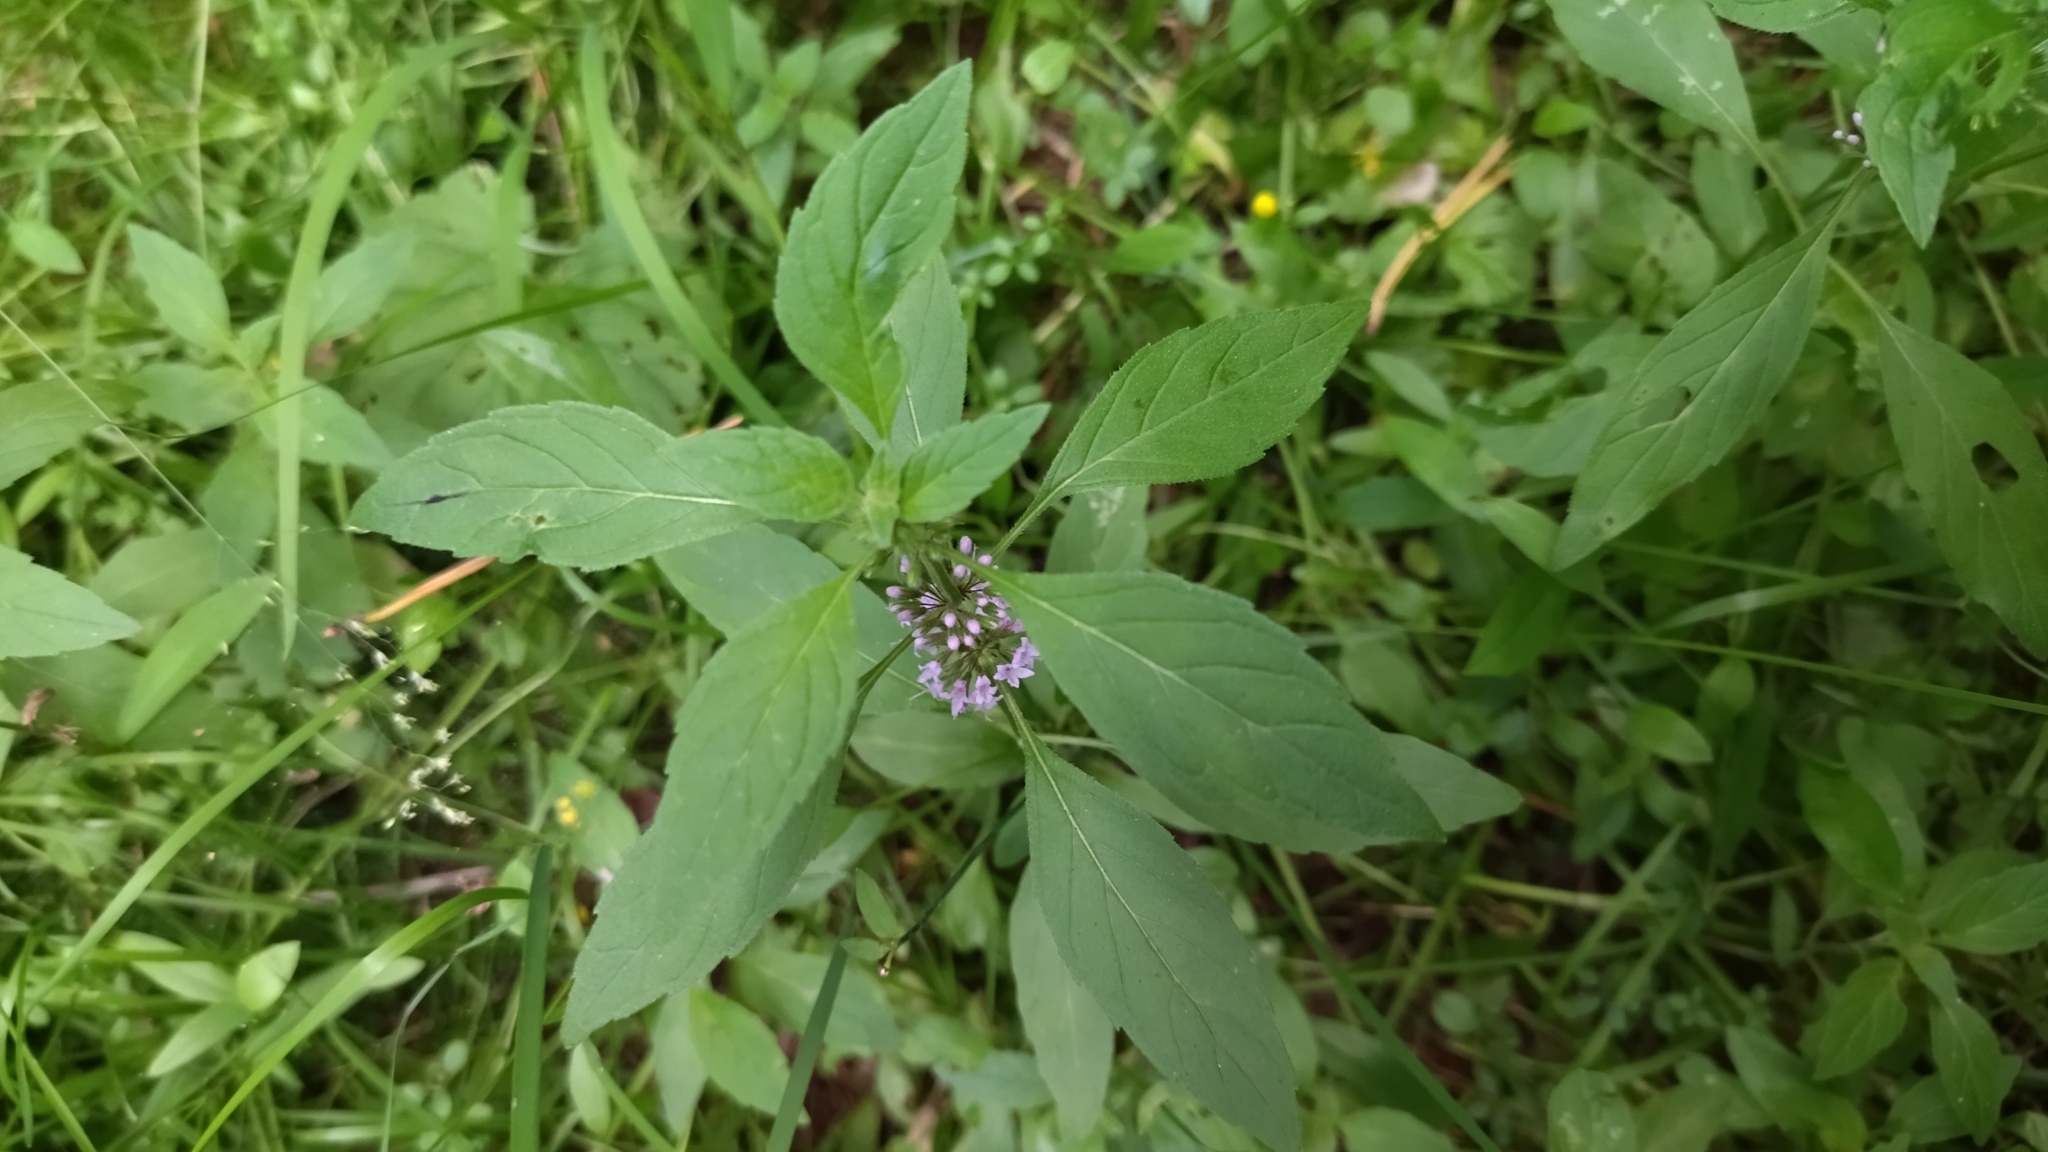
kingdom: Plantae
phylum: Tracheophyta
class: Magnoliopsida
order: Lamiales
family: Lamiaceae
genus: Mentha
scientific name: Mentha arvensis
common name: Corn mint
